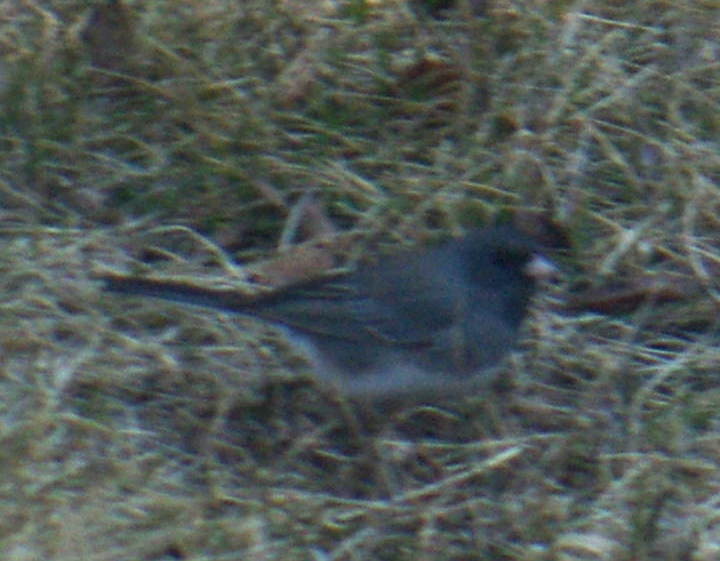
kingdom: Animalia
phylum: Chordata
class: Aves
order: Passeriformes
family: Passerellidae
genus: Junco
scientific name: Junco hyemalis
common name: Dark-eyed junco
